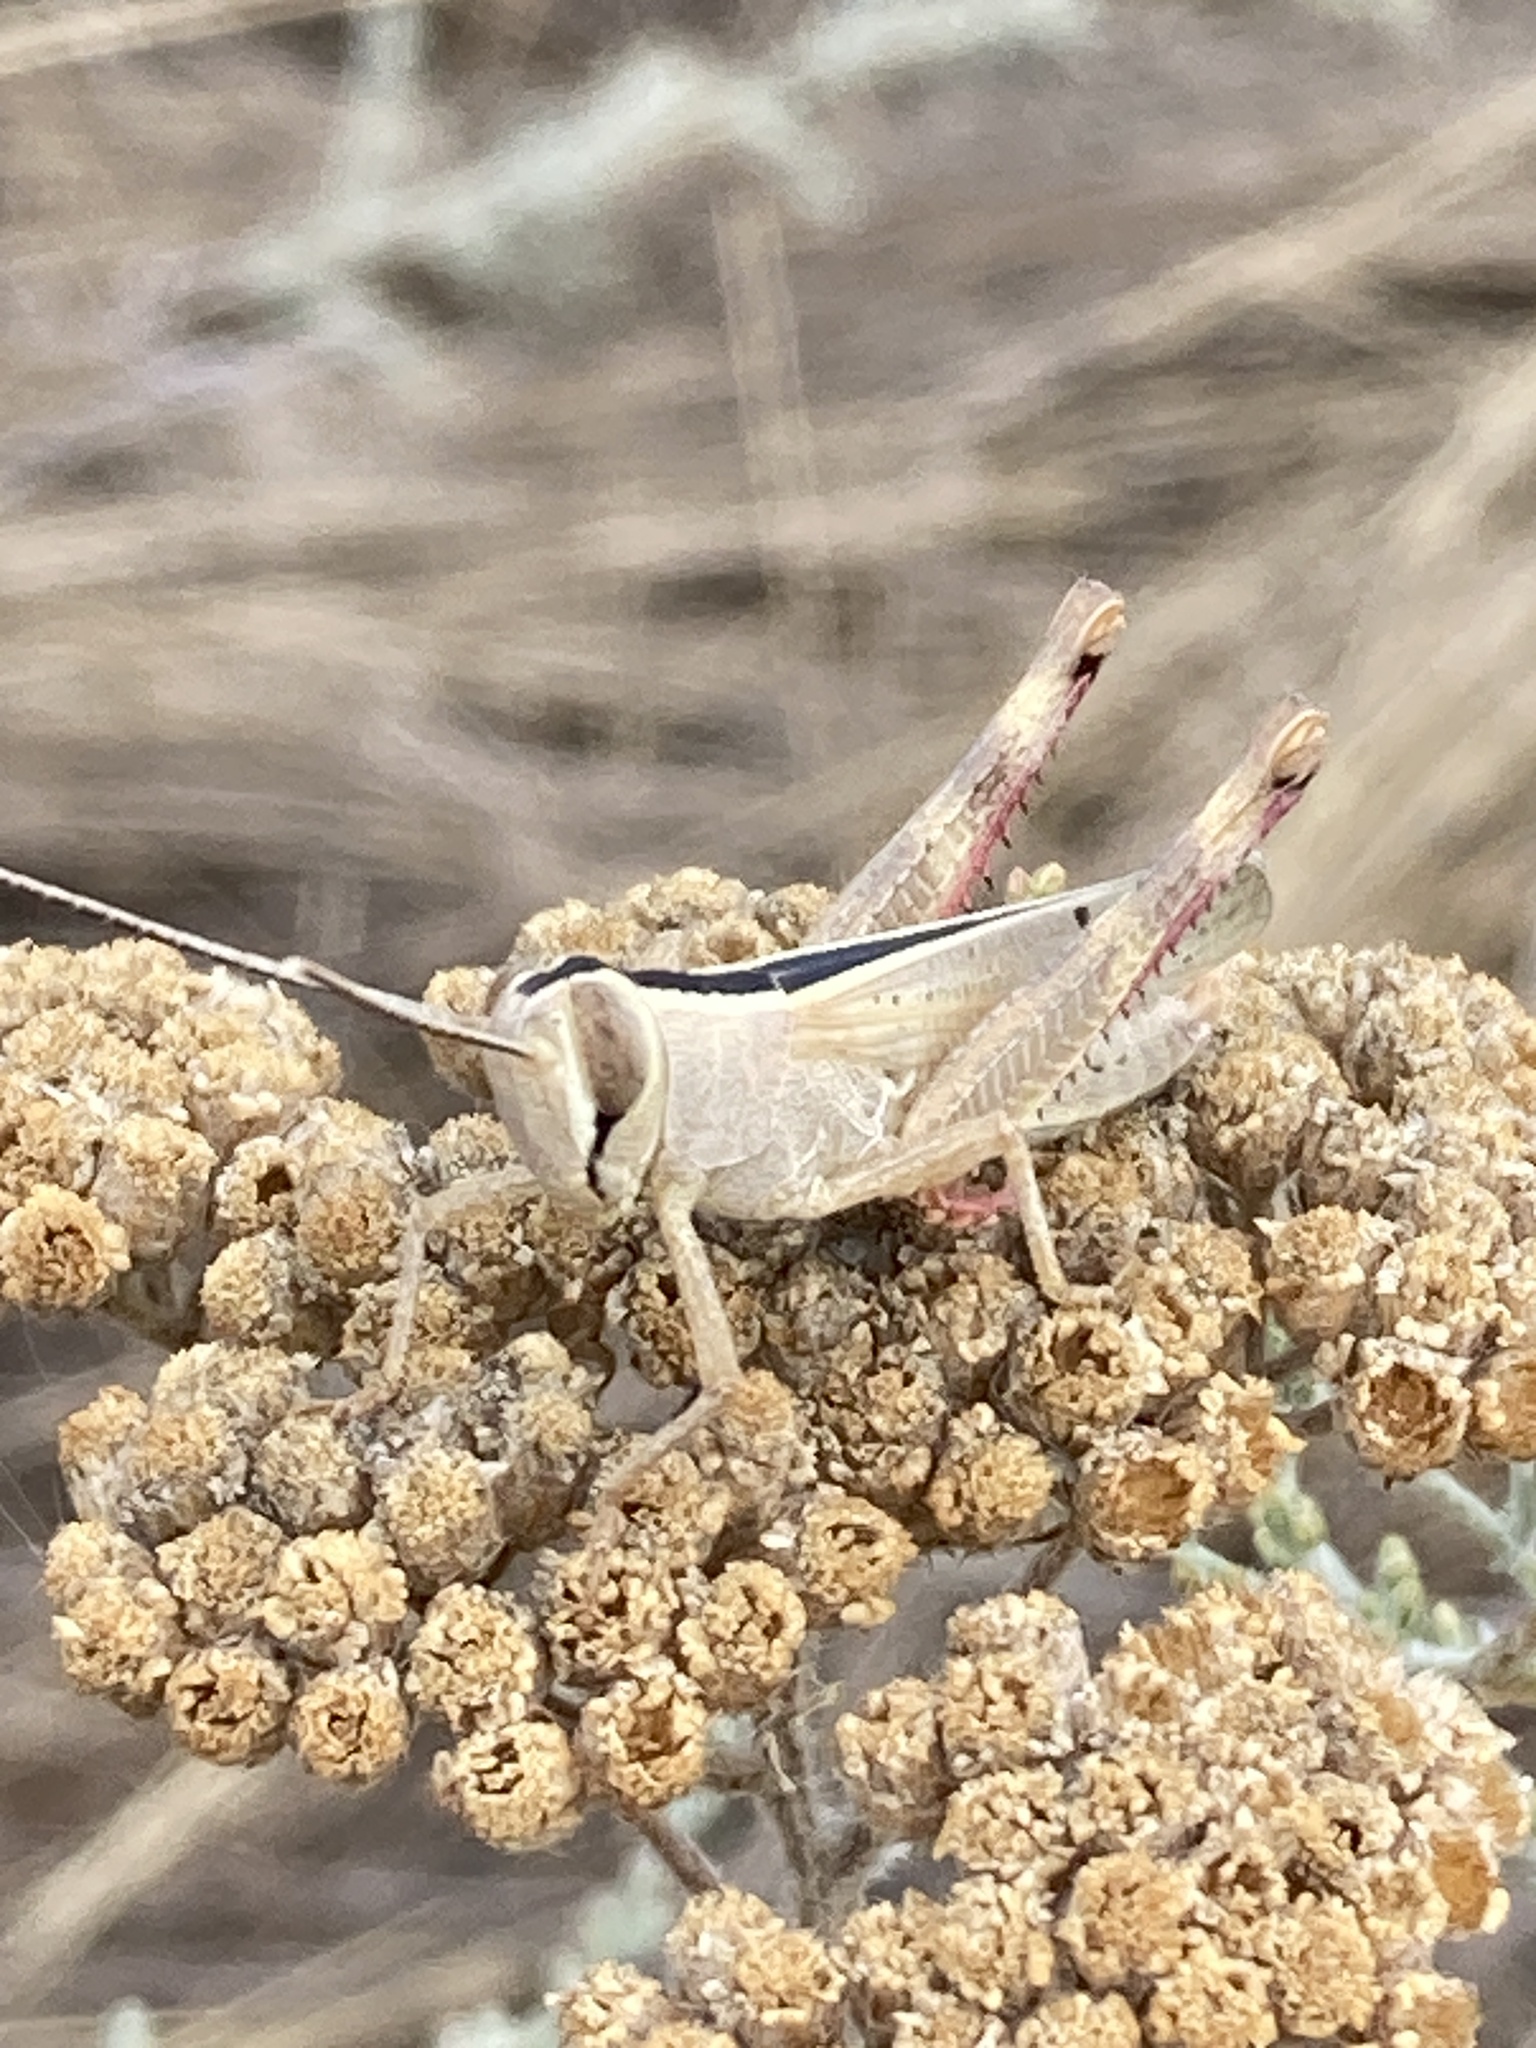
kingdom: Animalia
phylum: Arthropoda
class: Insecta
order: Orthoptera
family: Acrididae
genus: Heteracris
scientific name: Heteracris pterosticha
